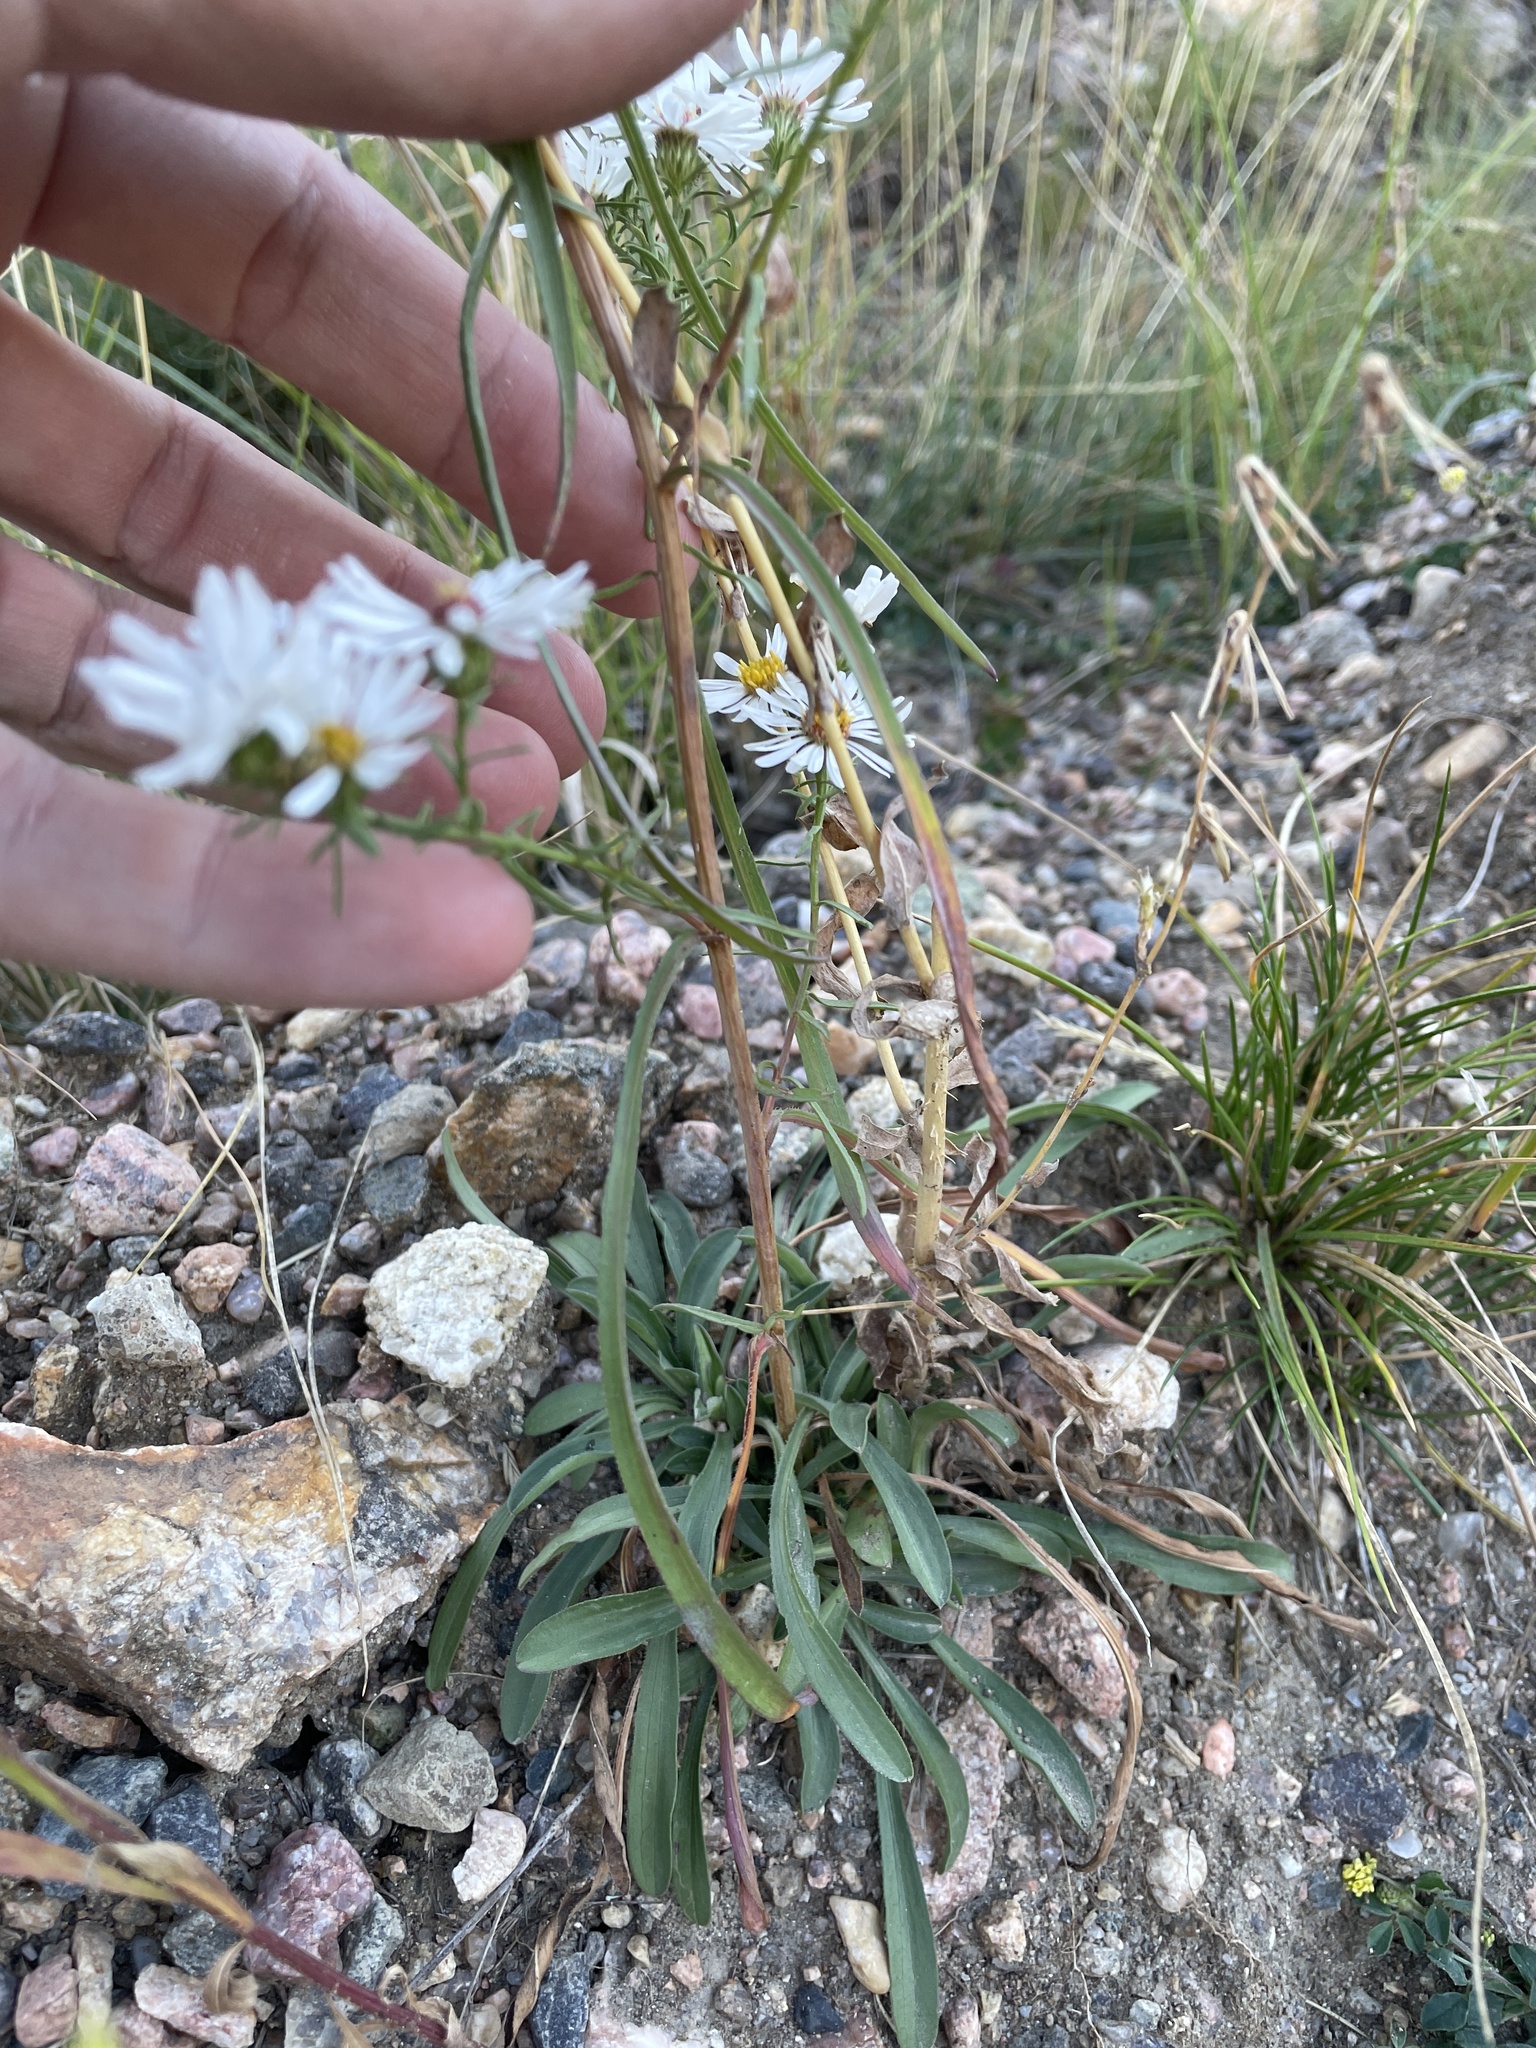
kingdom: Plantae
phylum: Tracheophyta
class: Magnoliopsida
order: Asterales
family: Asteraceae
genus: Symphyotrichum
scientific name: Symphyotrichum porteri
